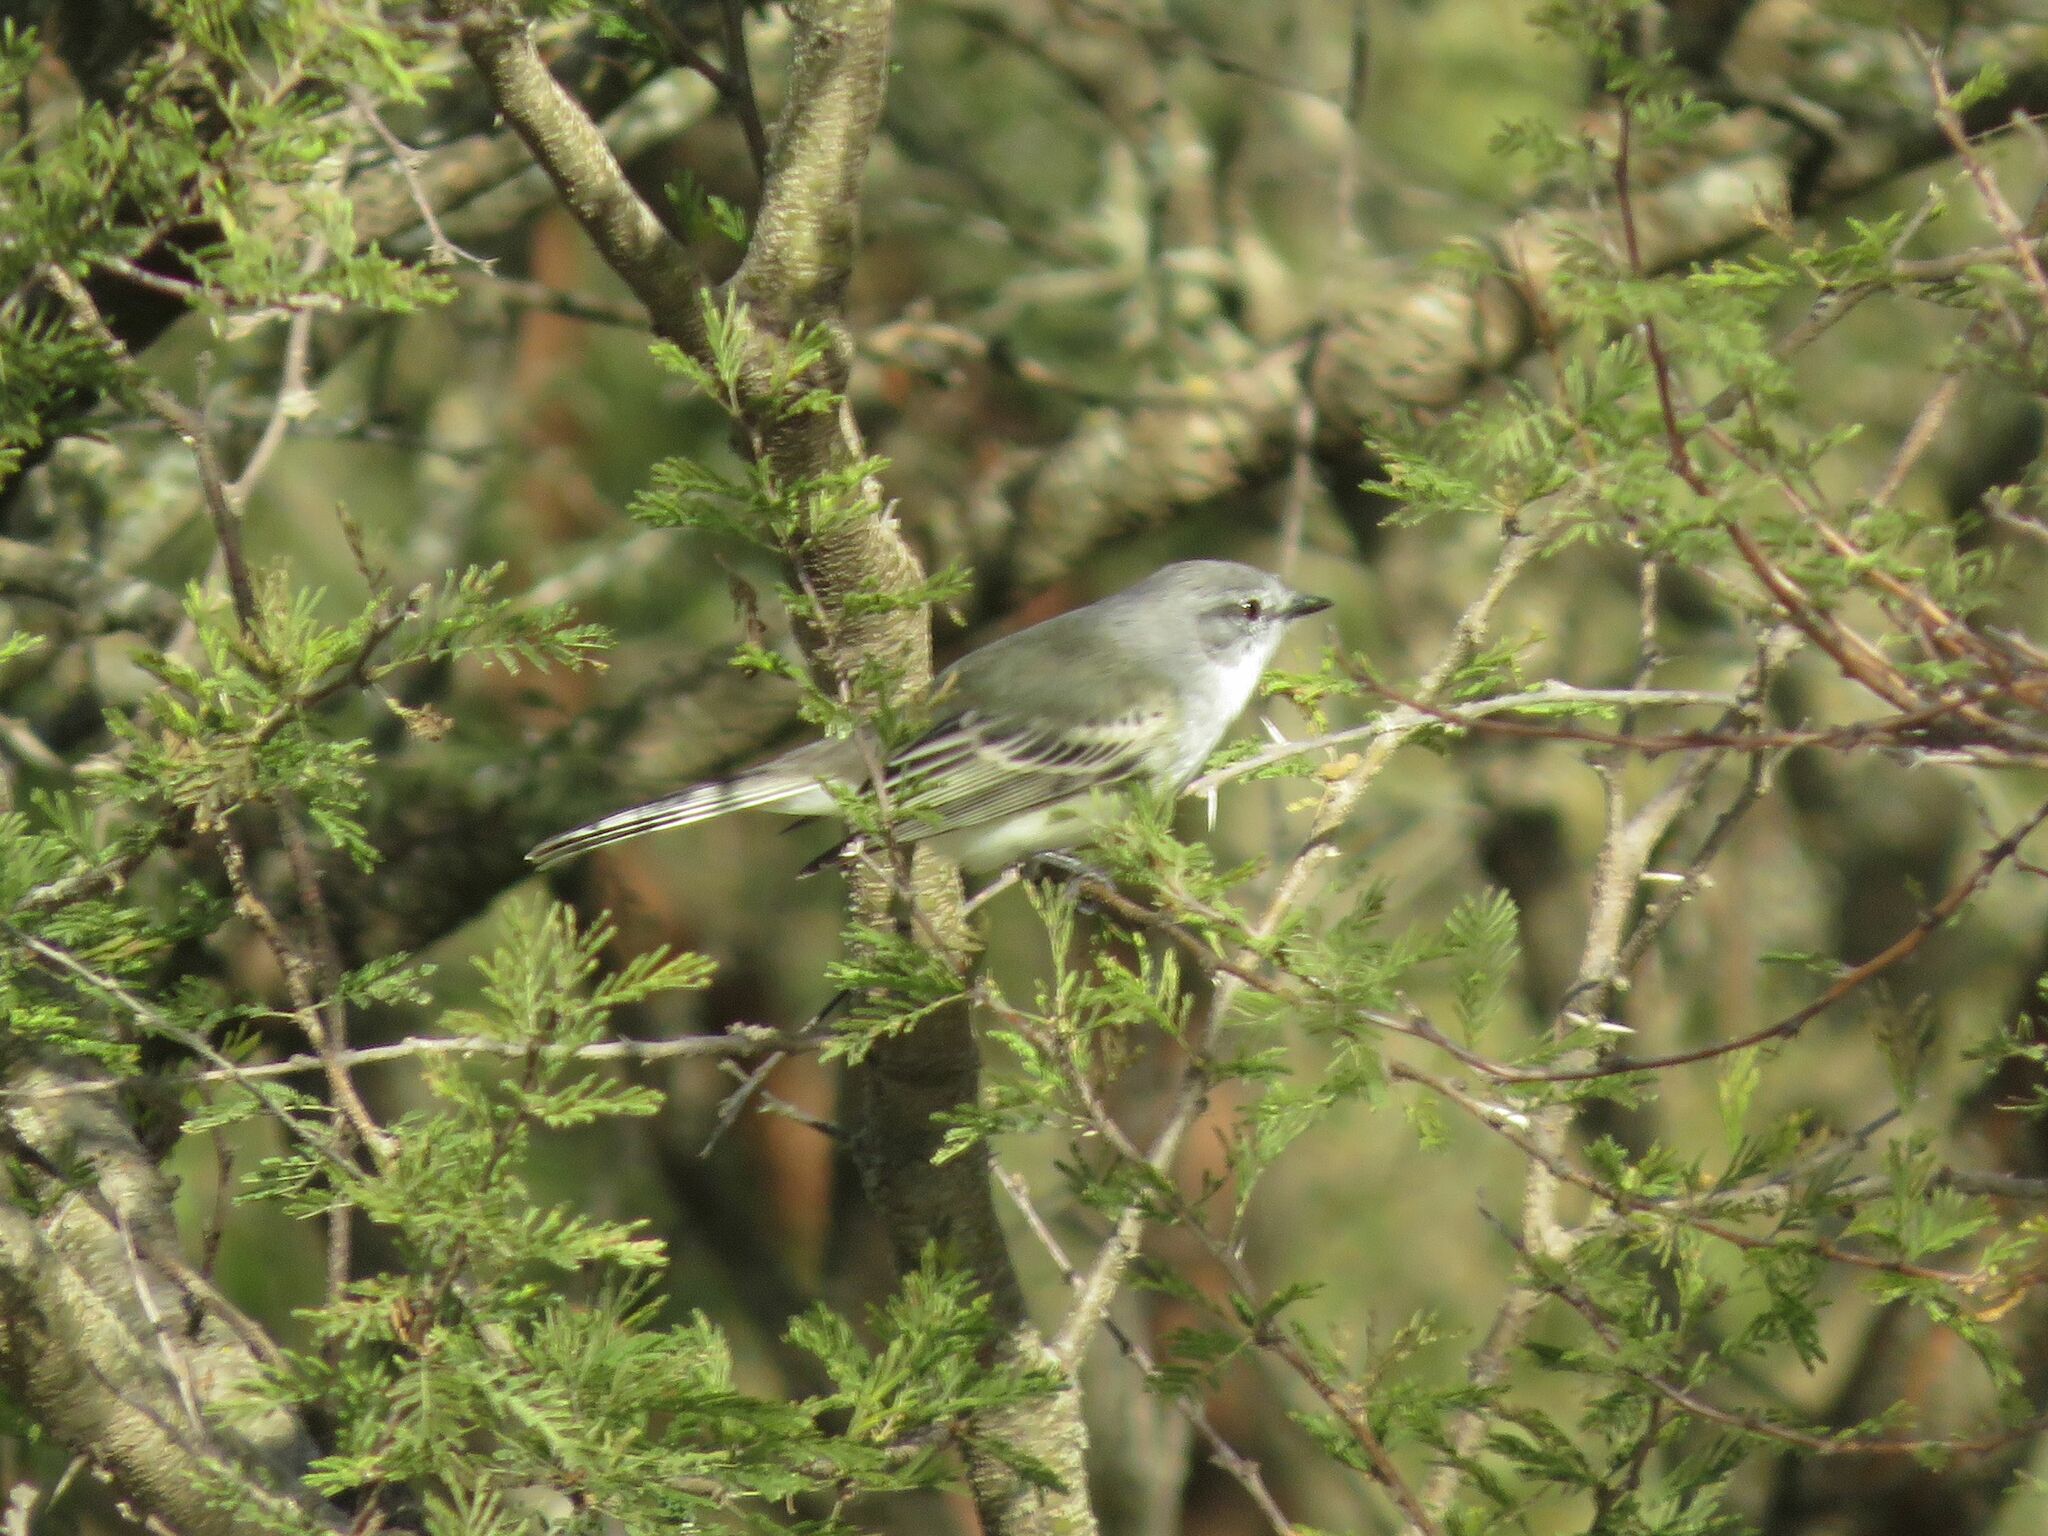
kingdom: Animalia
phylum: Chordata
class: Aves
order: Passeriformes
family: Tyrannidae
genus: Suiriri
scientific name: Suiriri suiriri
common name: Suiriri flycatcher
